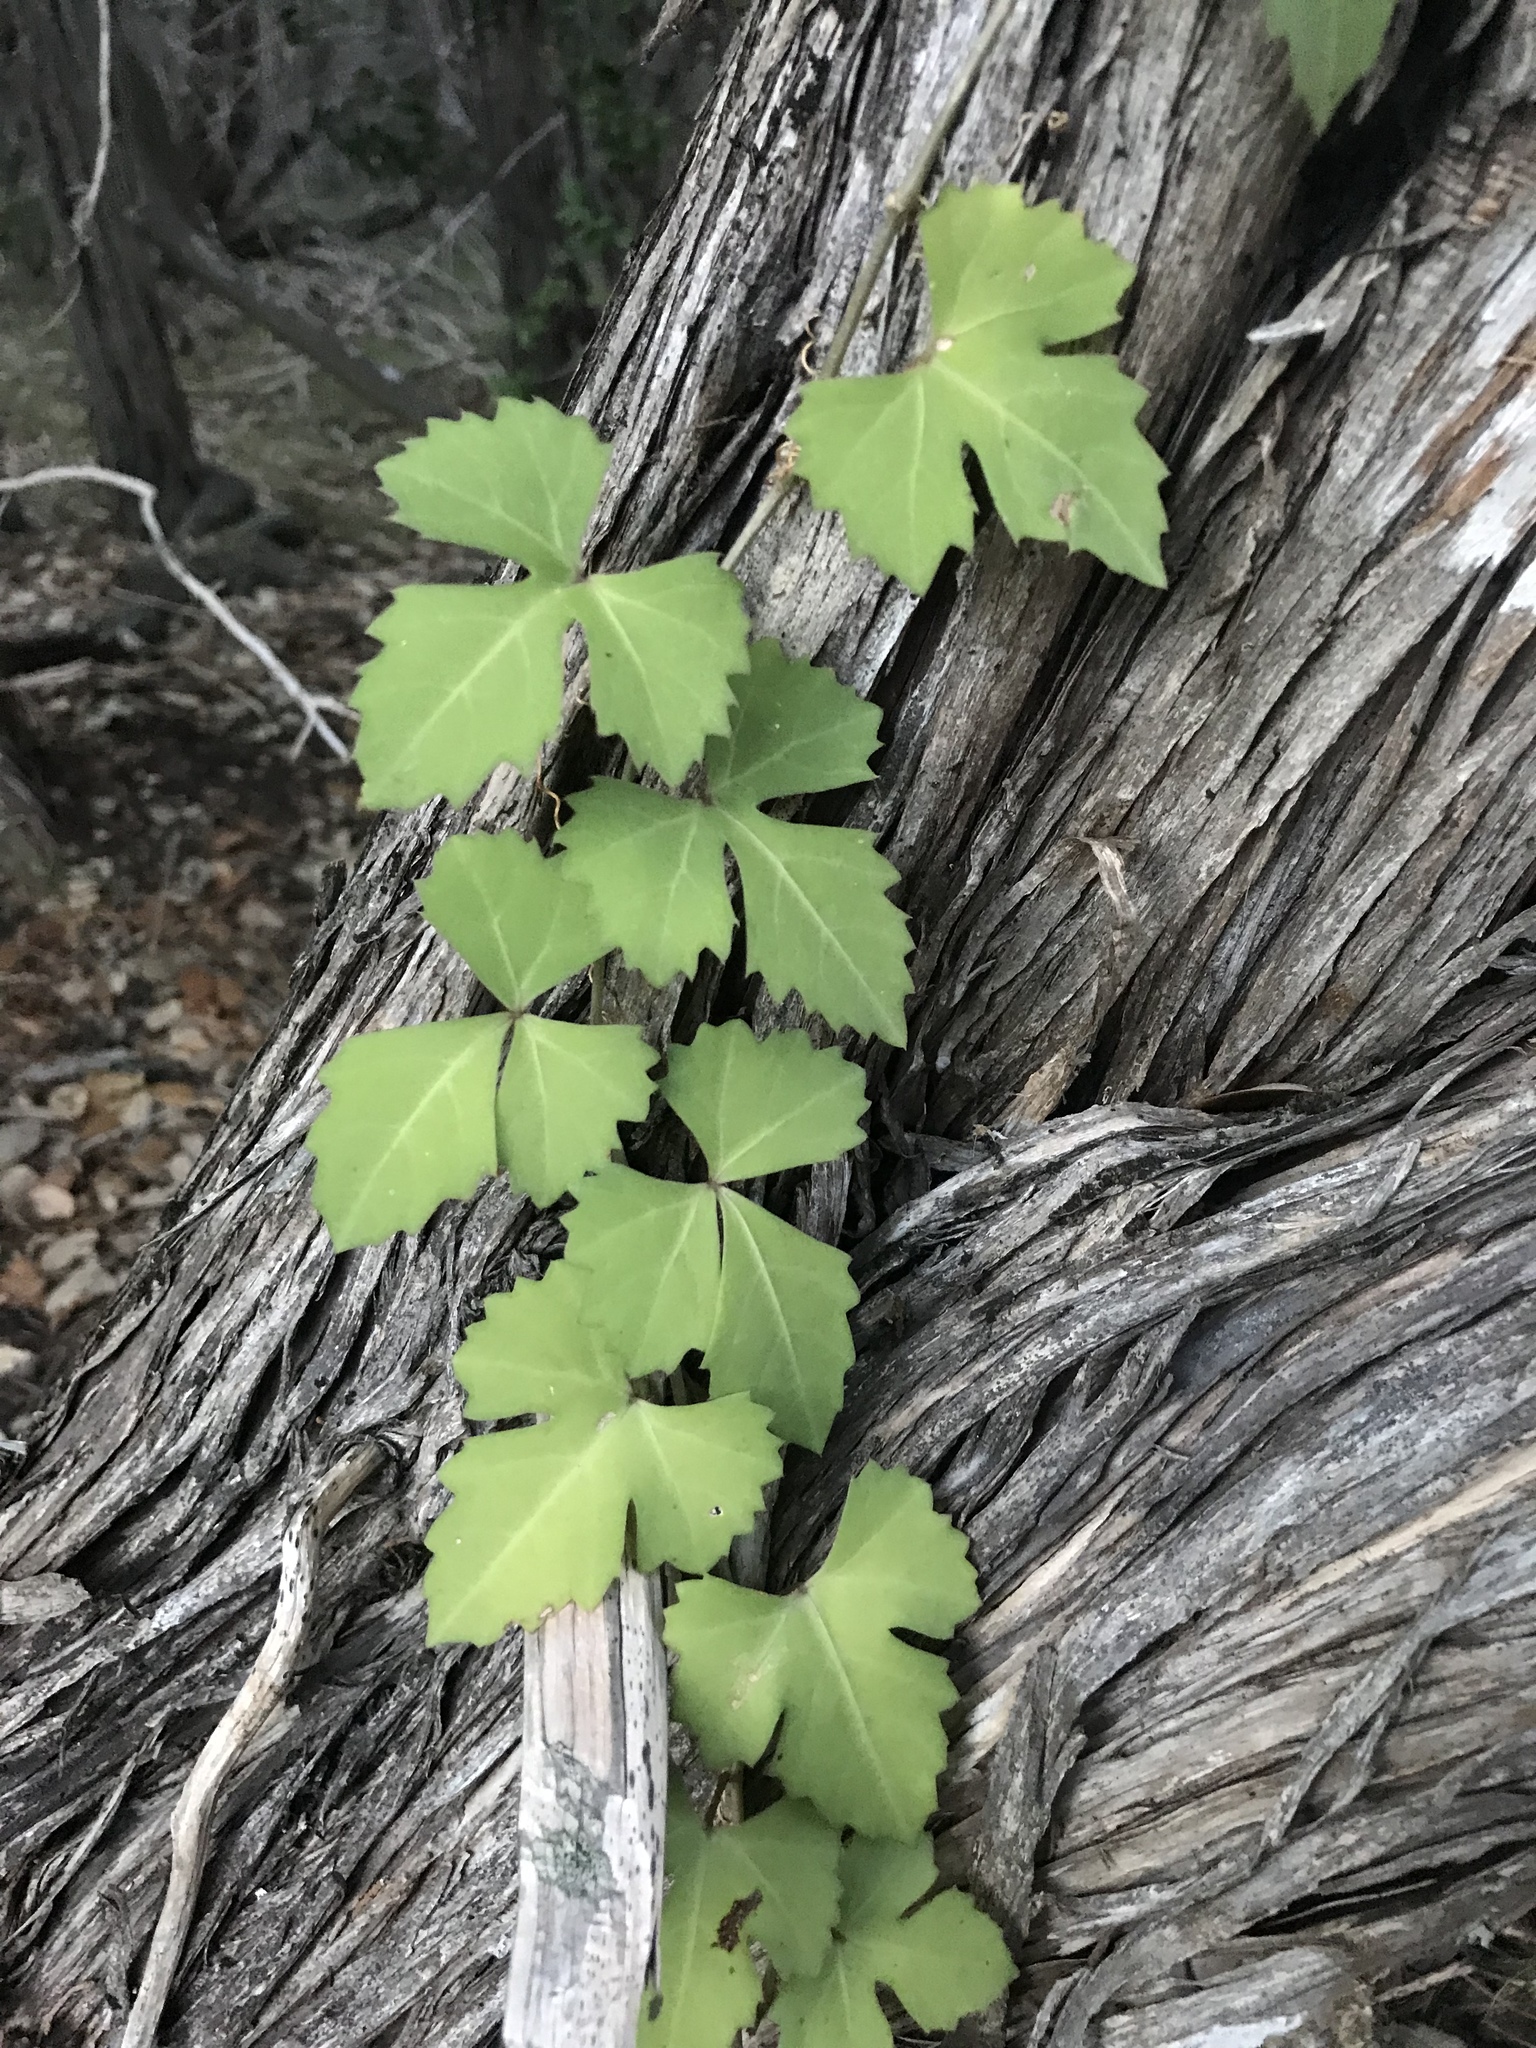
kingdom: Plantae
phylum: Tracheophyta
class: Magnoliopsida
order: Vitales
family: Vitaceae
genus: Cissus
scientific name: Cissus trifoliata
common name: Vine-sorrel
